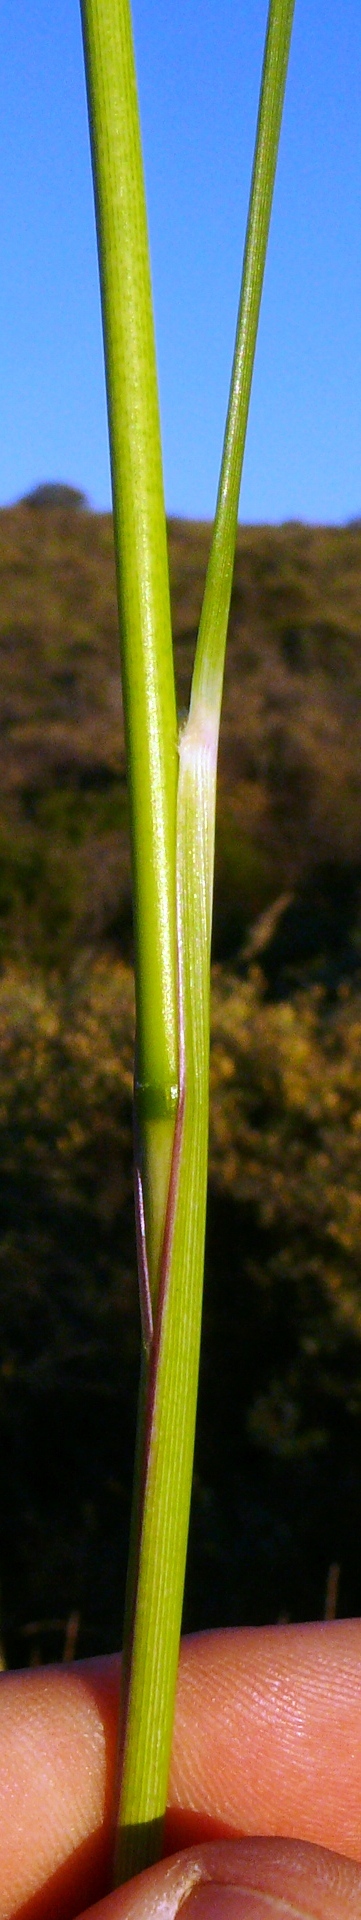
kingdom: Plantae
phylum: Tracheophyta
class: Liliopsida
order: Poales
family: Poaceae
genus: Tenaxia
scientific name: Tenaxia stricta
